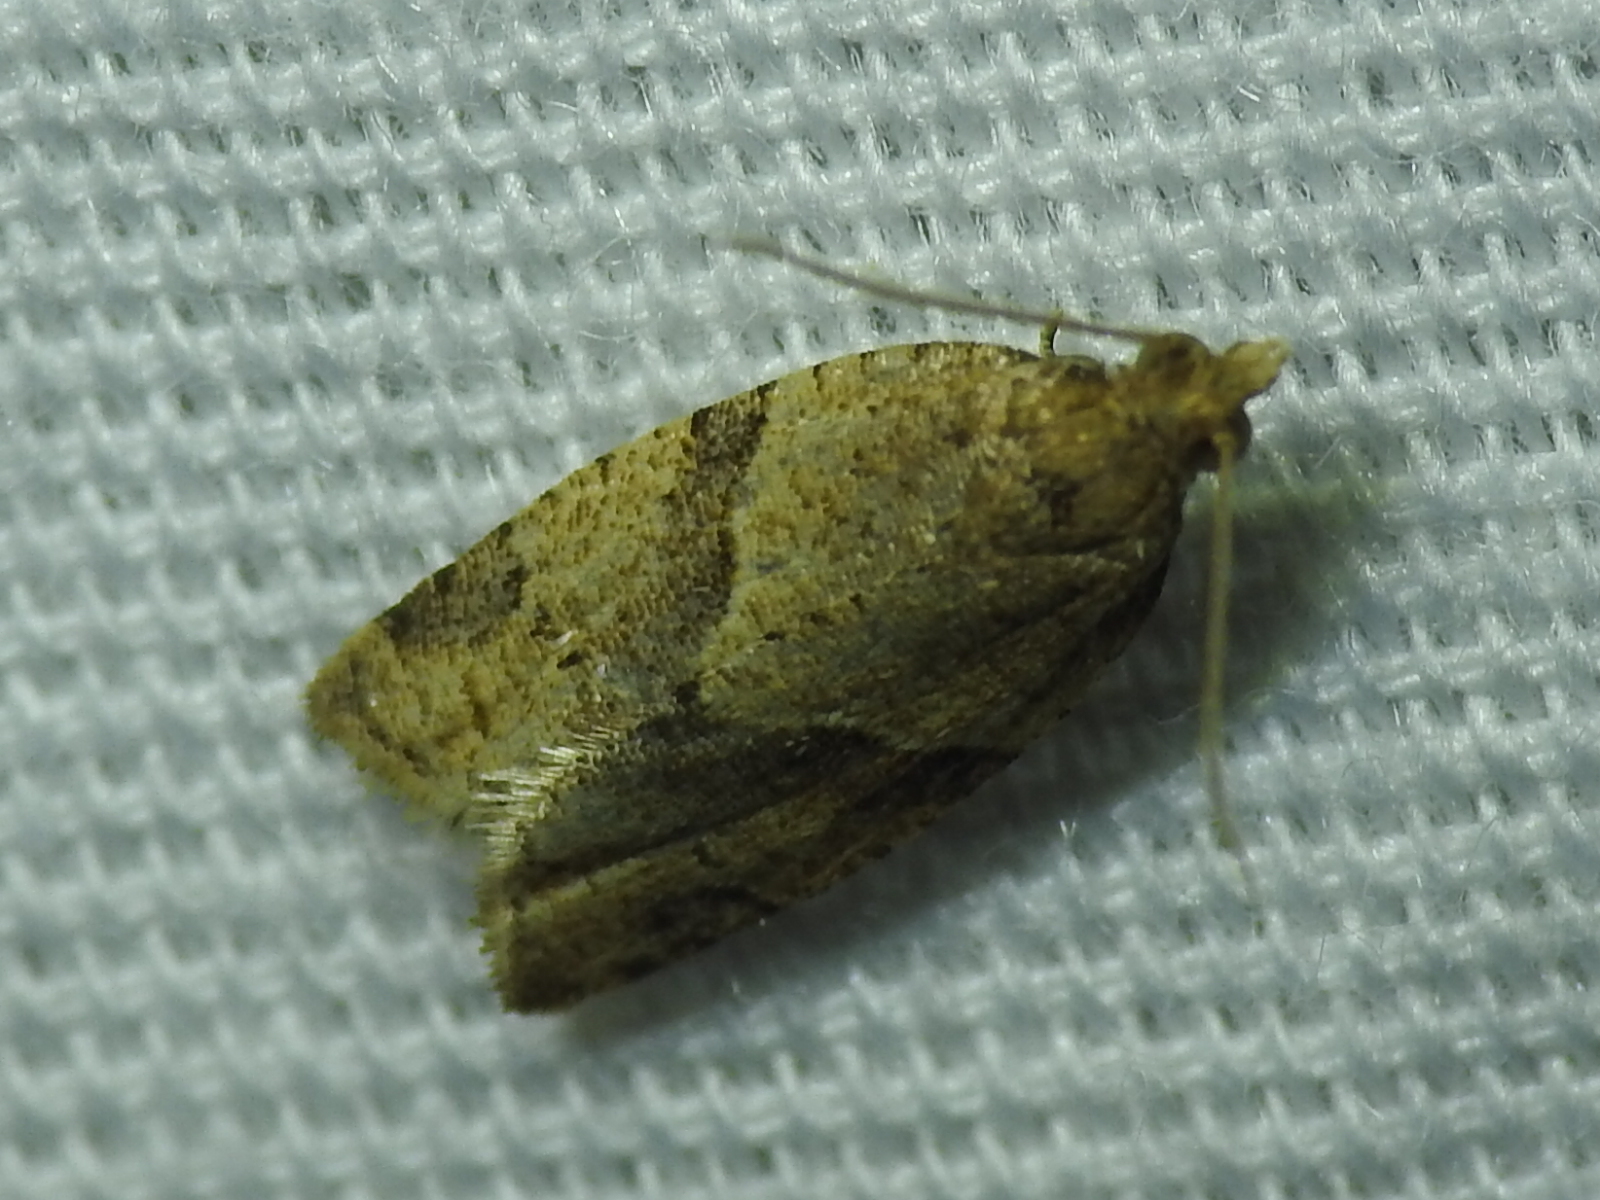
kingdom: Animalia
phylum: Arthropoda
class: Insecta
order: Lepidoptera
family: Tortricidae
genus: Clepsis
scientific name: Clepsis peritana
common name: Garden tortrix
